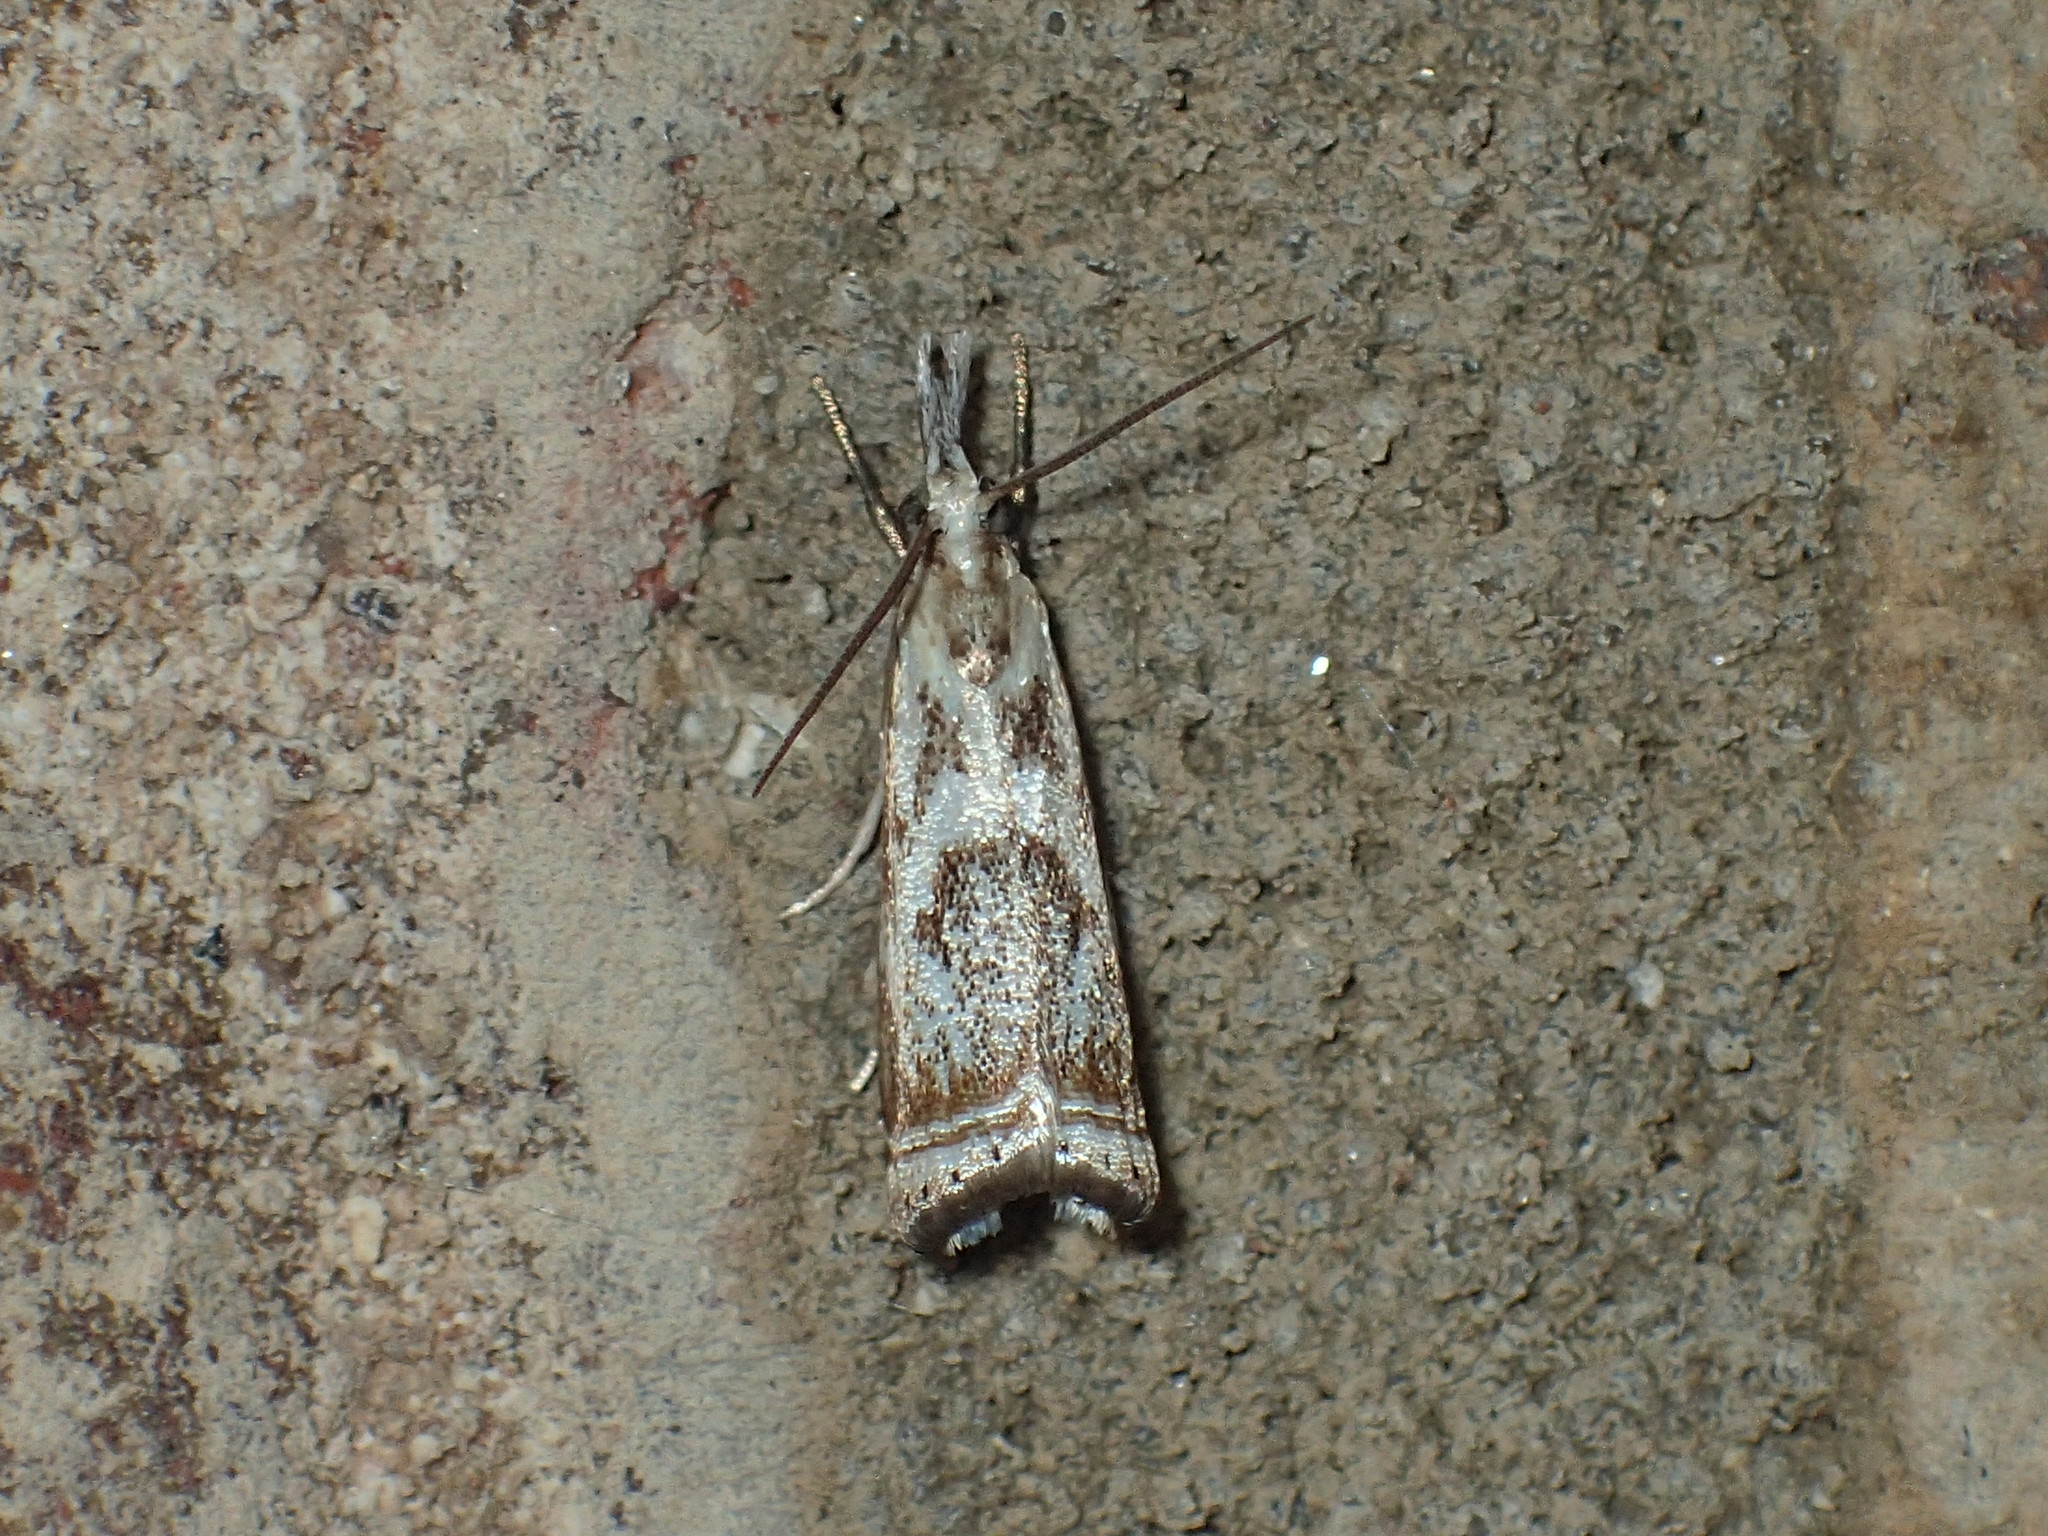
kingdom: Animalia
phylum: Arthropoda
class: Insecta
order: Lepidoptera
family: Crambidae
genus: Microcrambus
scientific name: Microcrambus elegans
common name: Elegant grass-veneer
